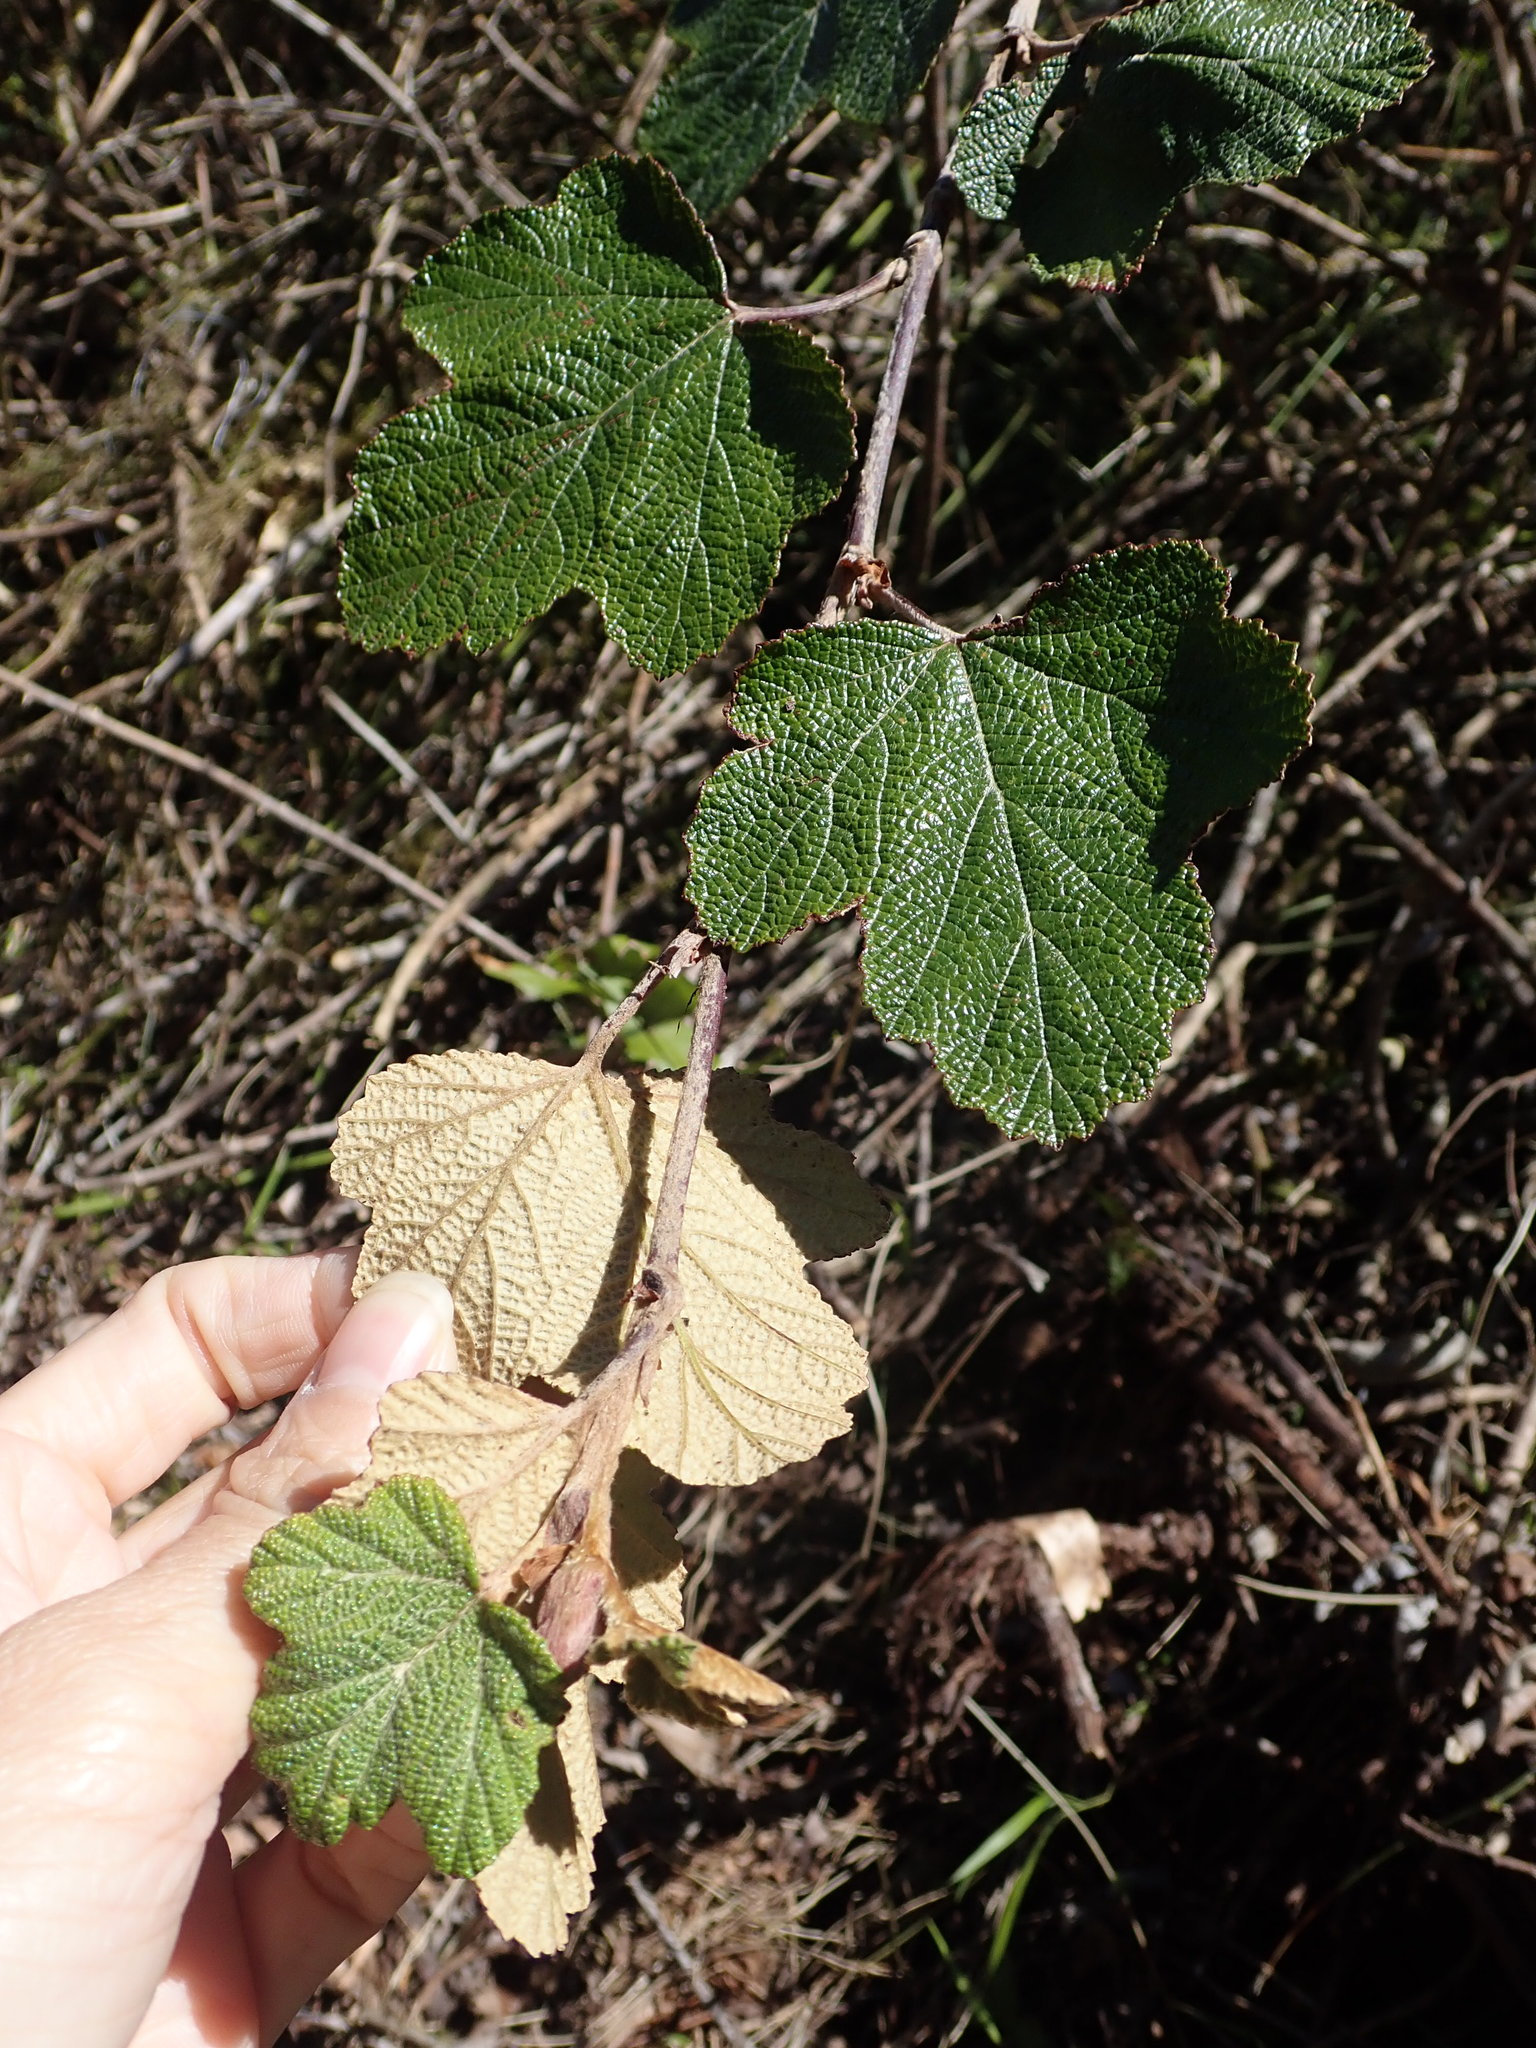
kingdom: Plantae
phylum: Tracheophyta
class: Magnoliopsida
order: Rosales
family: Rosaceae
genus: Rubus
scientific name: Rubus formosensis
